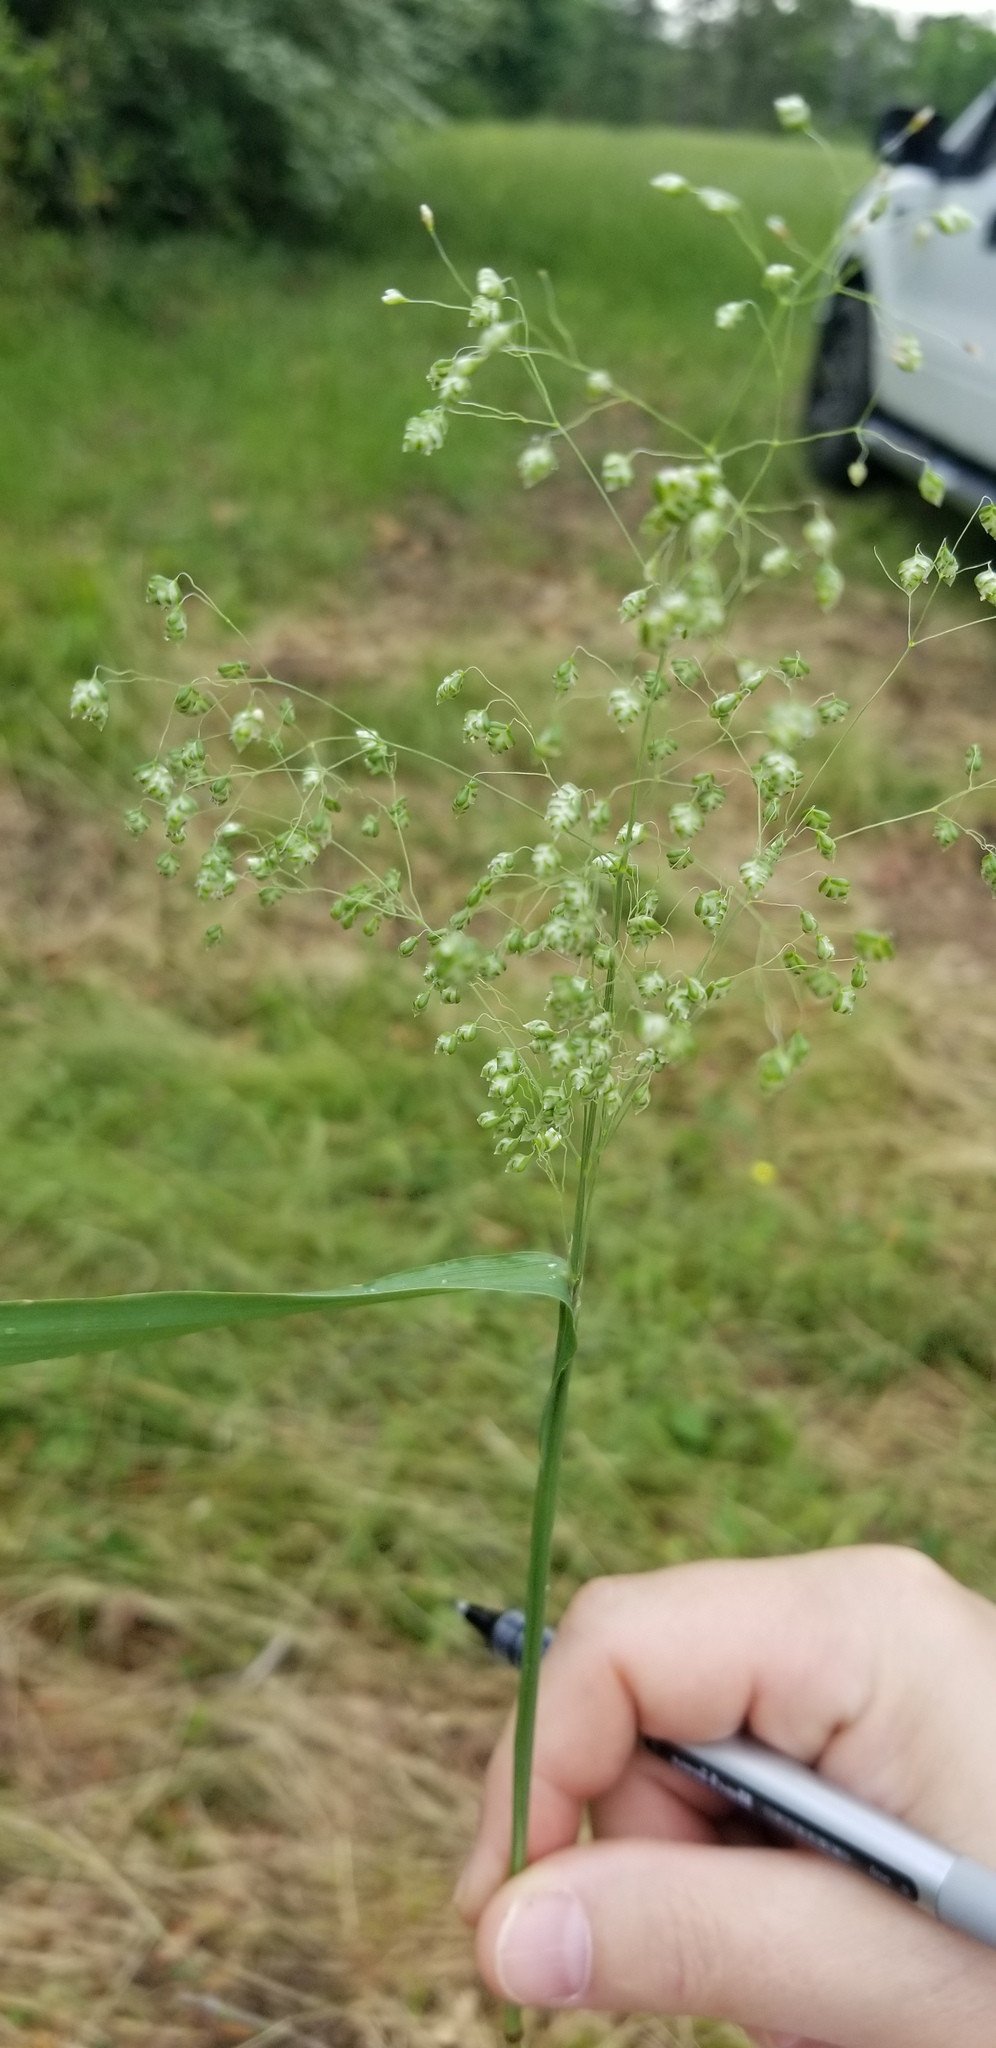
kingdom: Plantae
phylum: Tracheophyta
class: Liliopsida
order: Poales
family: Poaceae
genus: Briza
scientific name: Briza minor
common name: Lesser quaking-grass
